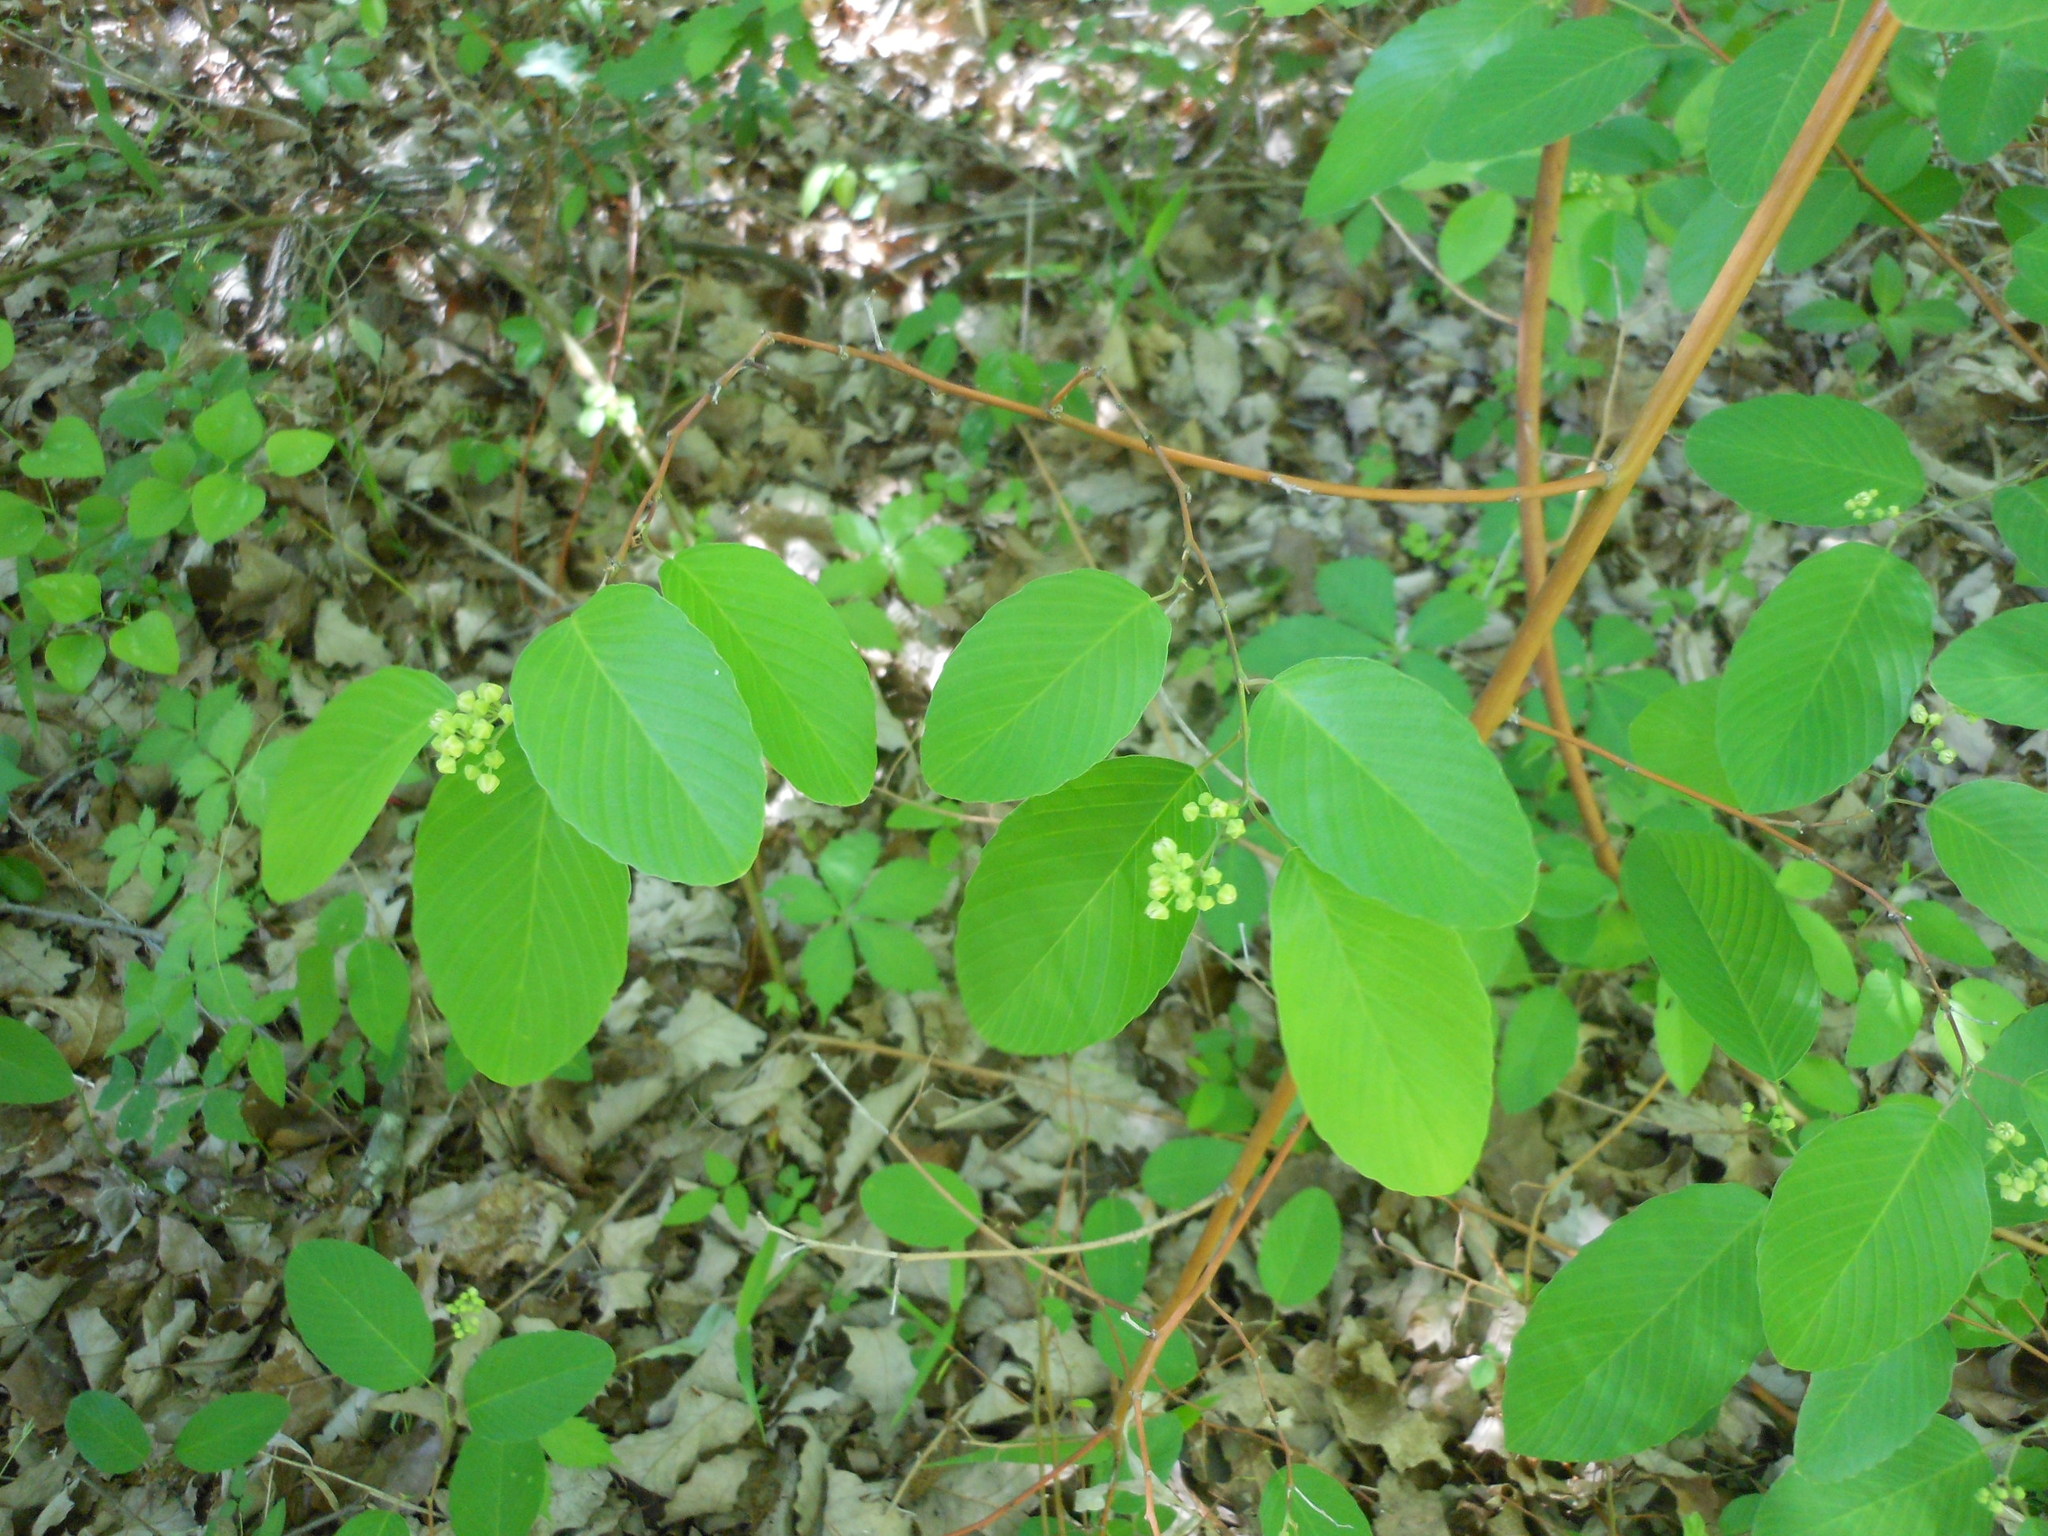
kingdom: Plantae
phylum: Tracheophyta
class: Magnoliopsida
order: Rosales
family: Rhamnaceae
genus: Berchemia
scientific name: Berchemia scandens
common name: Supplejack
